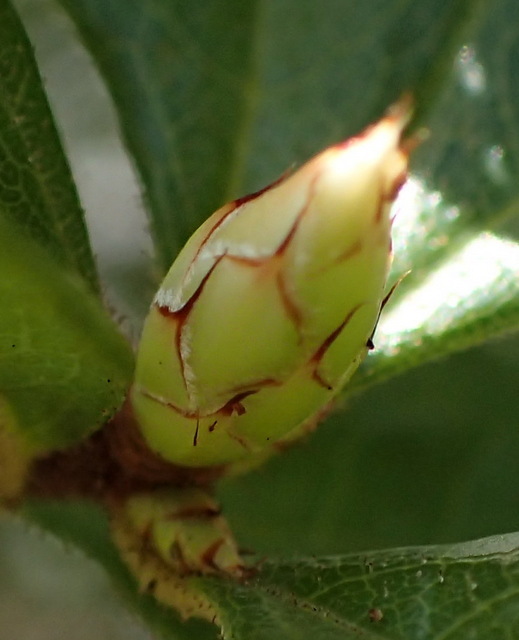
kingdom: Plantae
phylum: Tracheophyta
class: Magnoliopsida
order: Ericales
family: Ericaceae
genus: Rhododendron
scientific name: Rhododendron serrulatum
